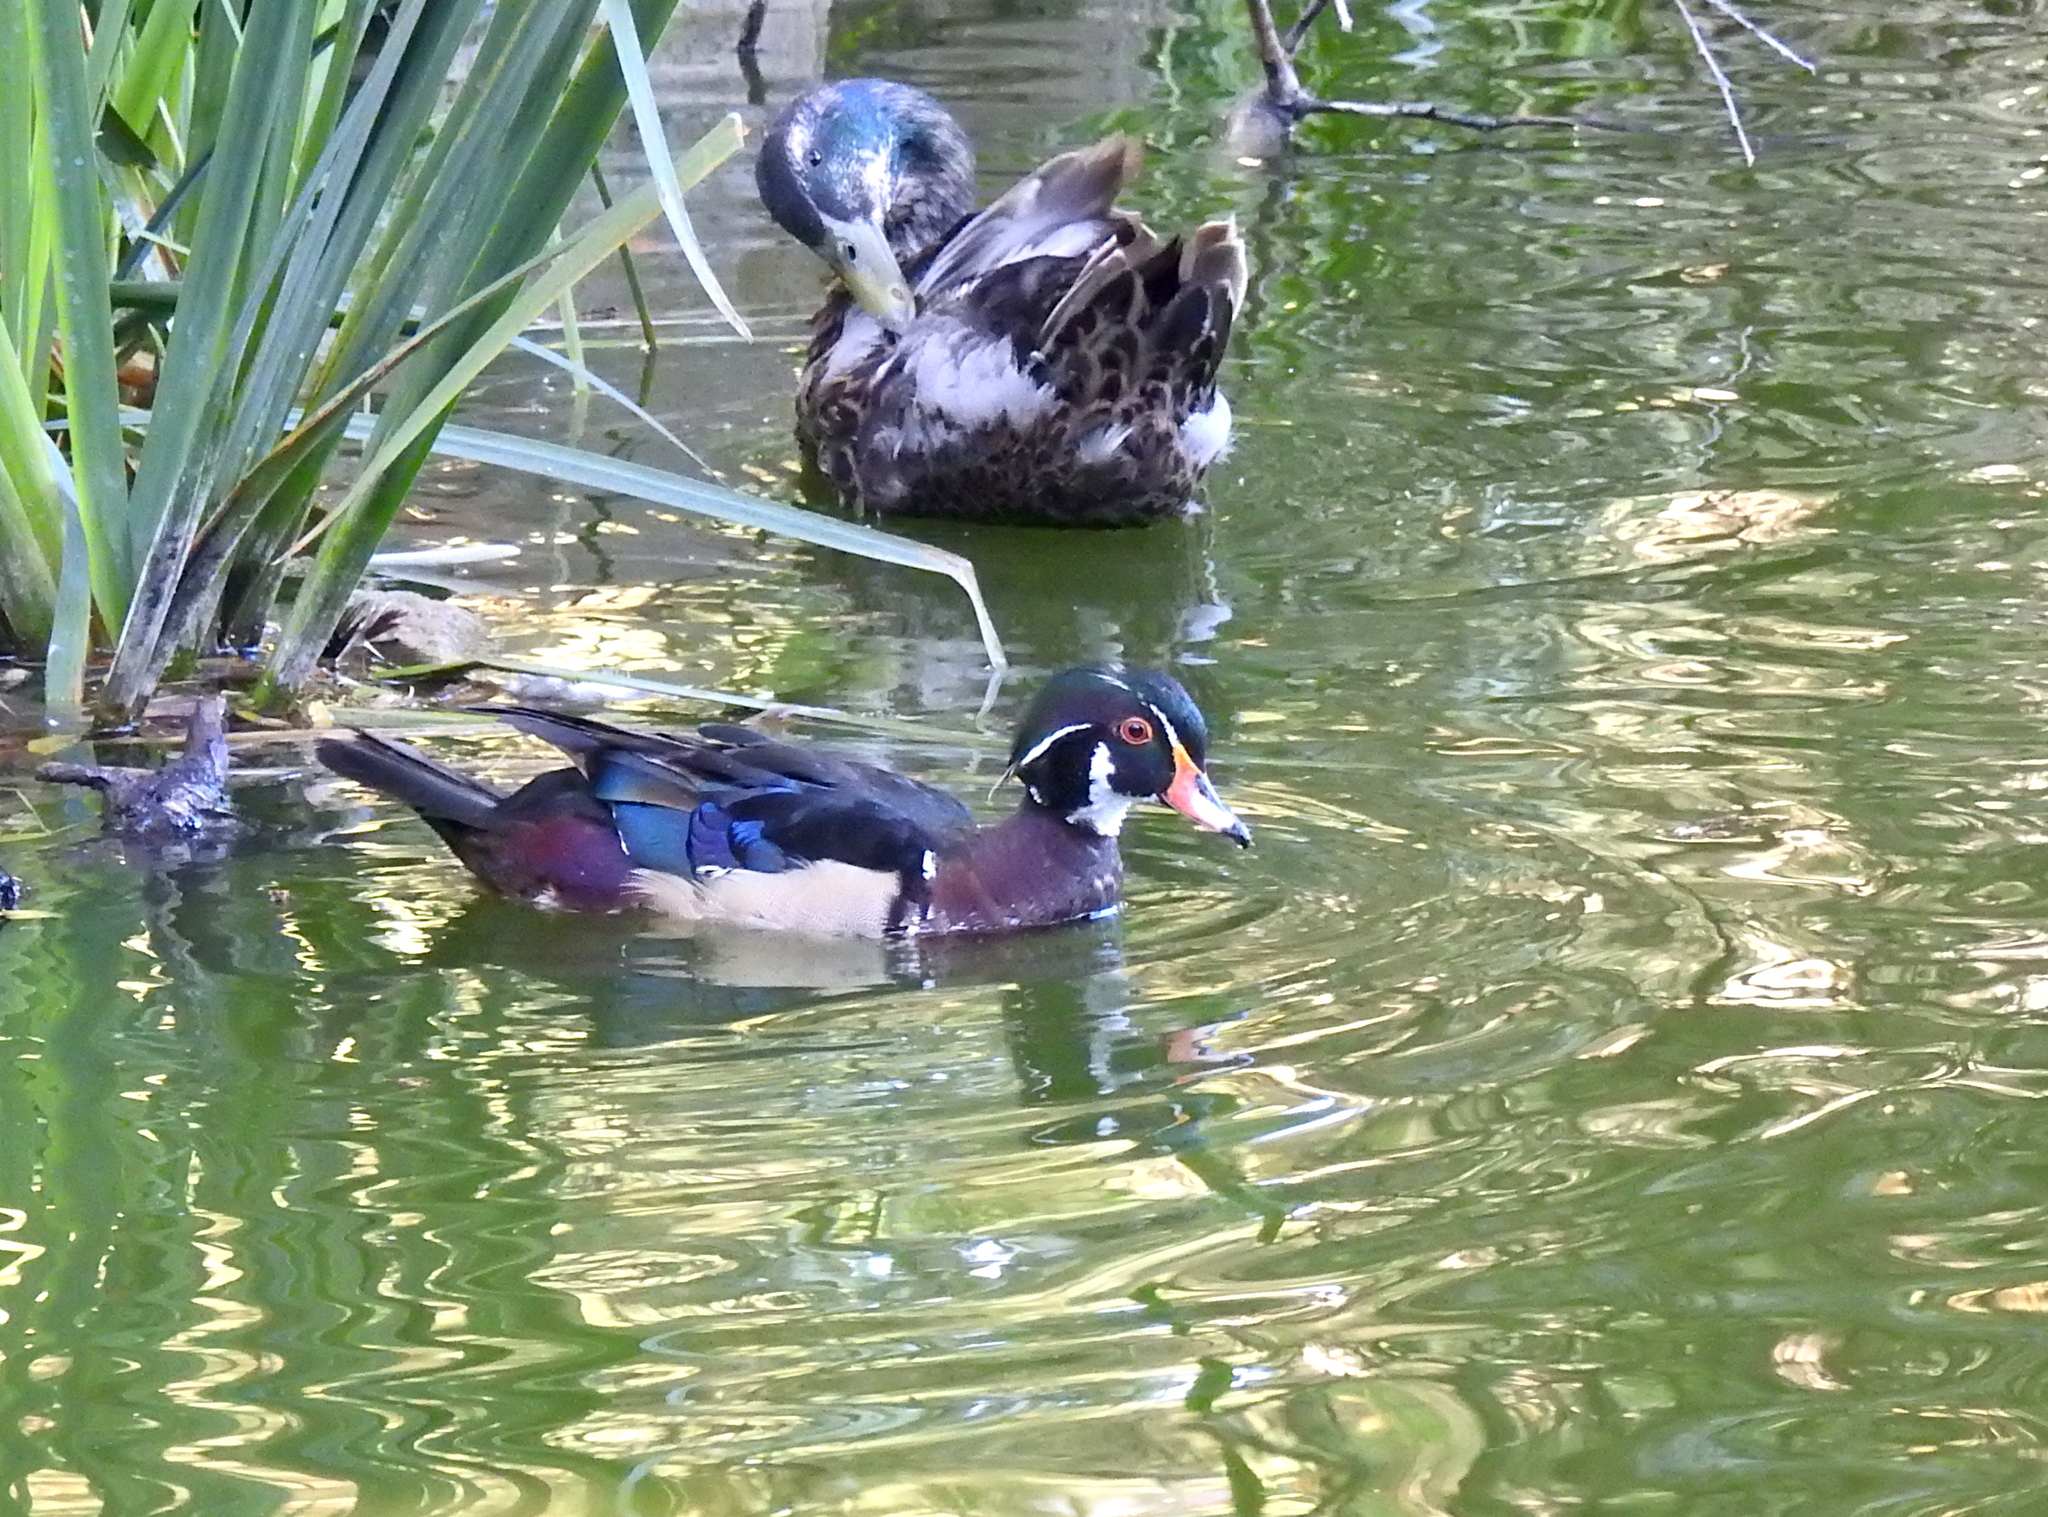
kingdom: Animalia
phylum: Chordata
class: Aves
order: Anseriformes
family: Anatidae
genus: Aix
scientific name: Aix sponsa
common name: Wood duck
